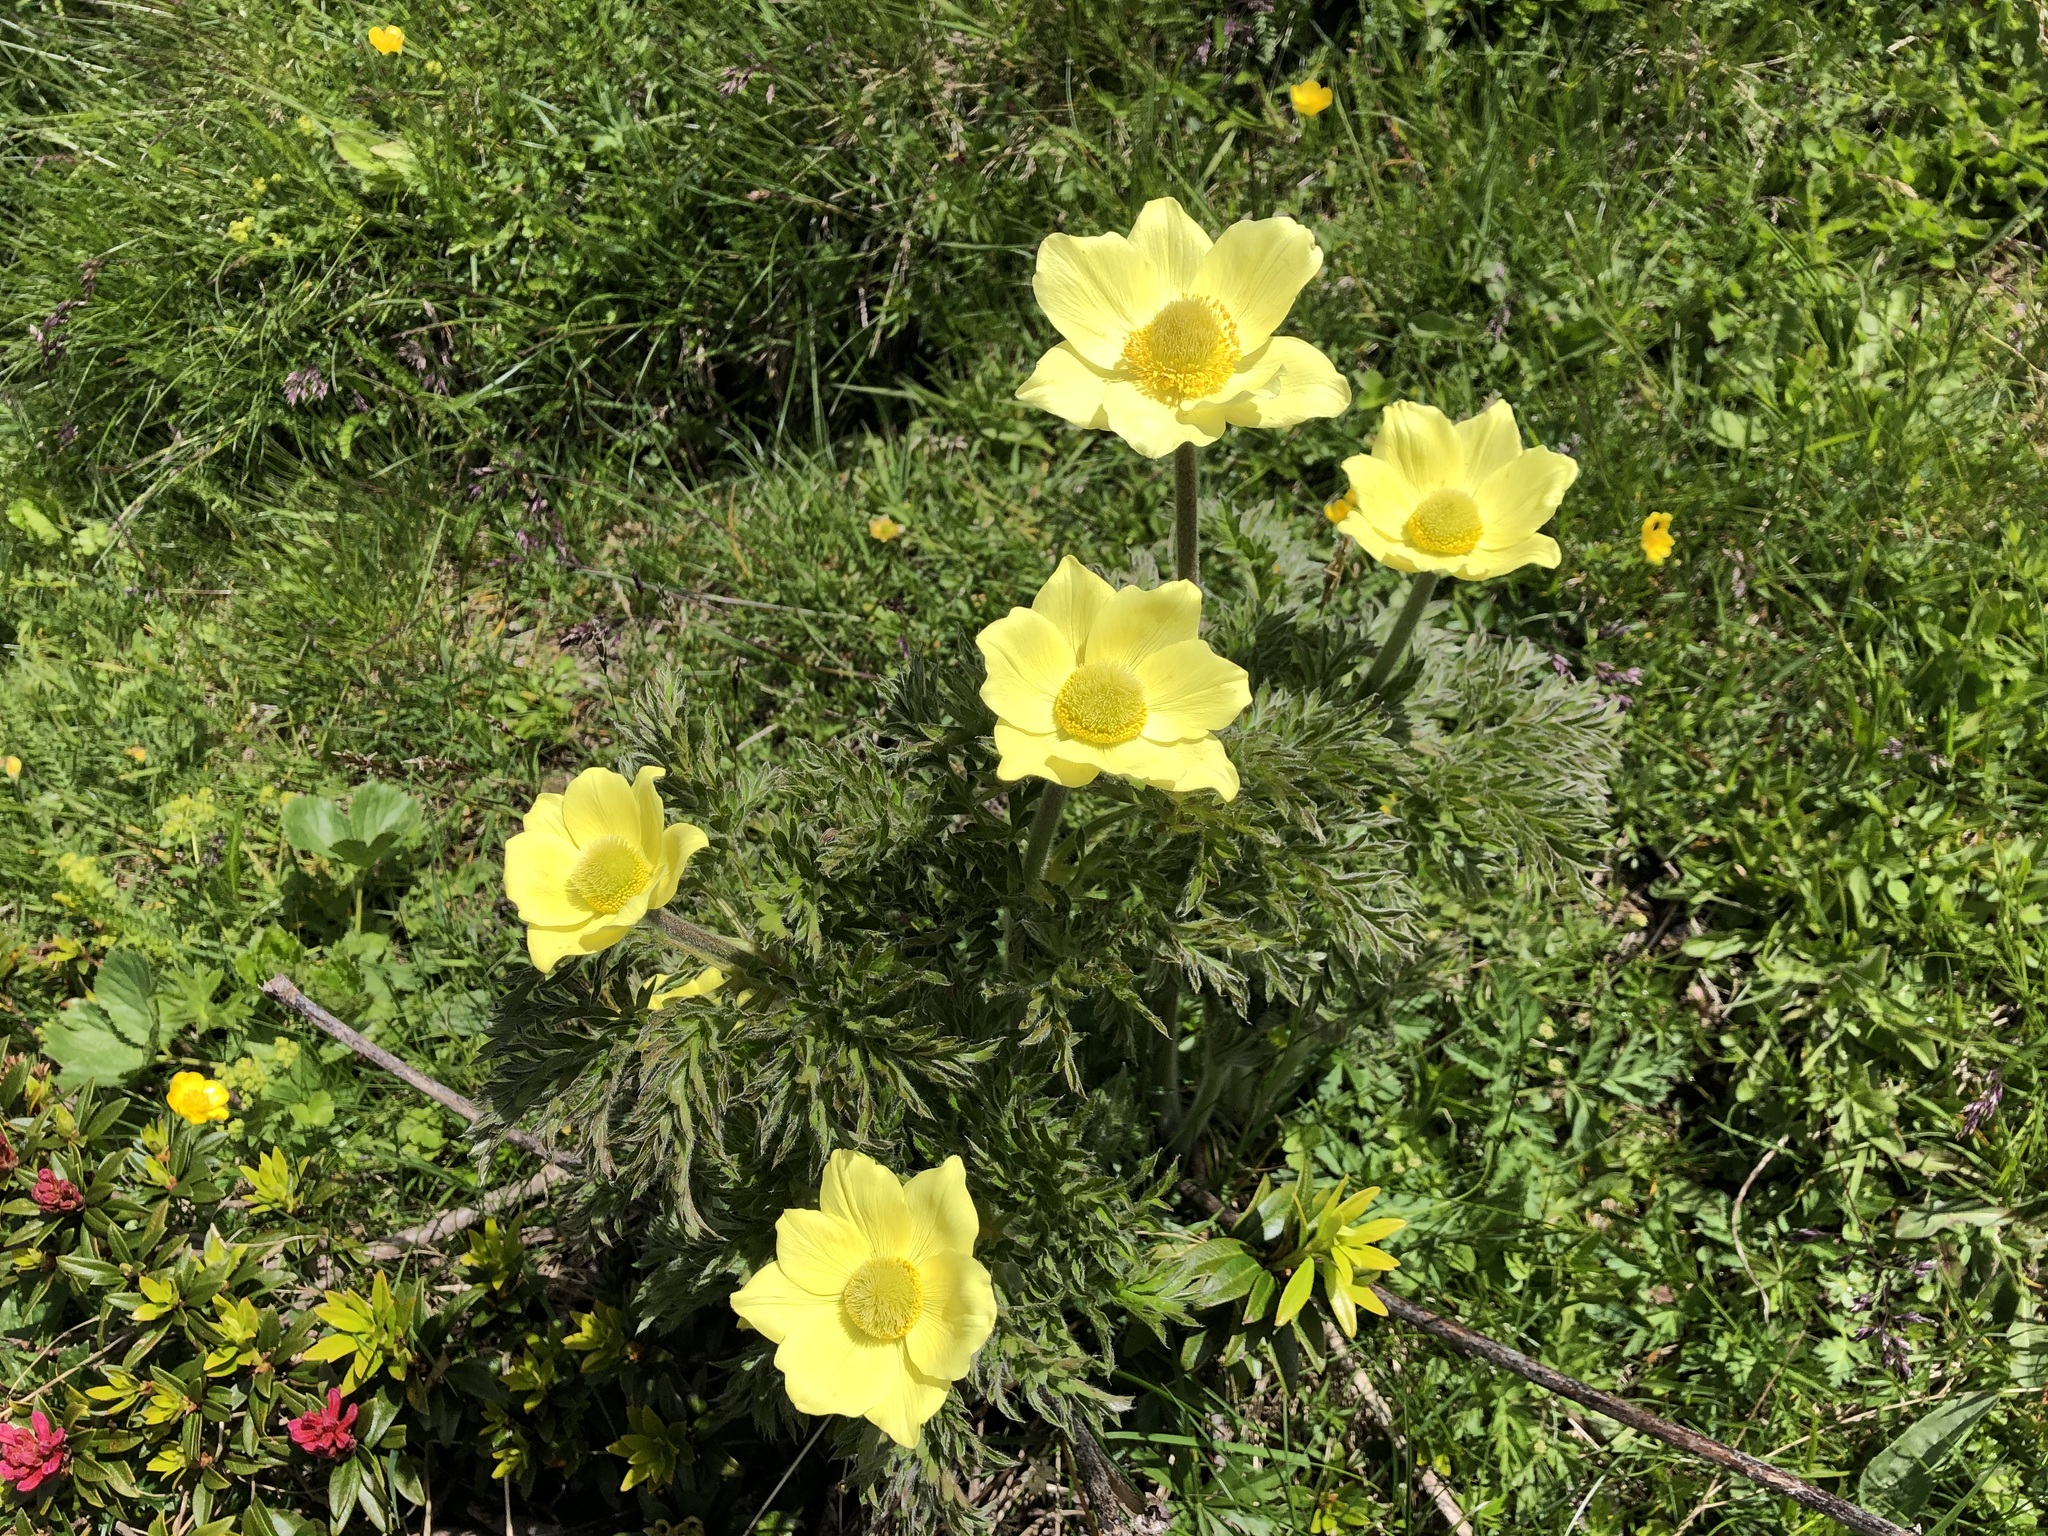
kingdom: Plantae
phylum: Tracheophyta
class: Magnoliopsida
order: Ranunculales
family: Ranunculaceae
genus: Pulsatilla
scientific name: Pulsatilla alpina
